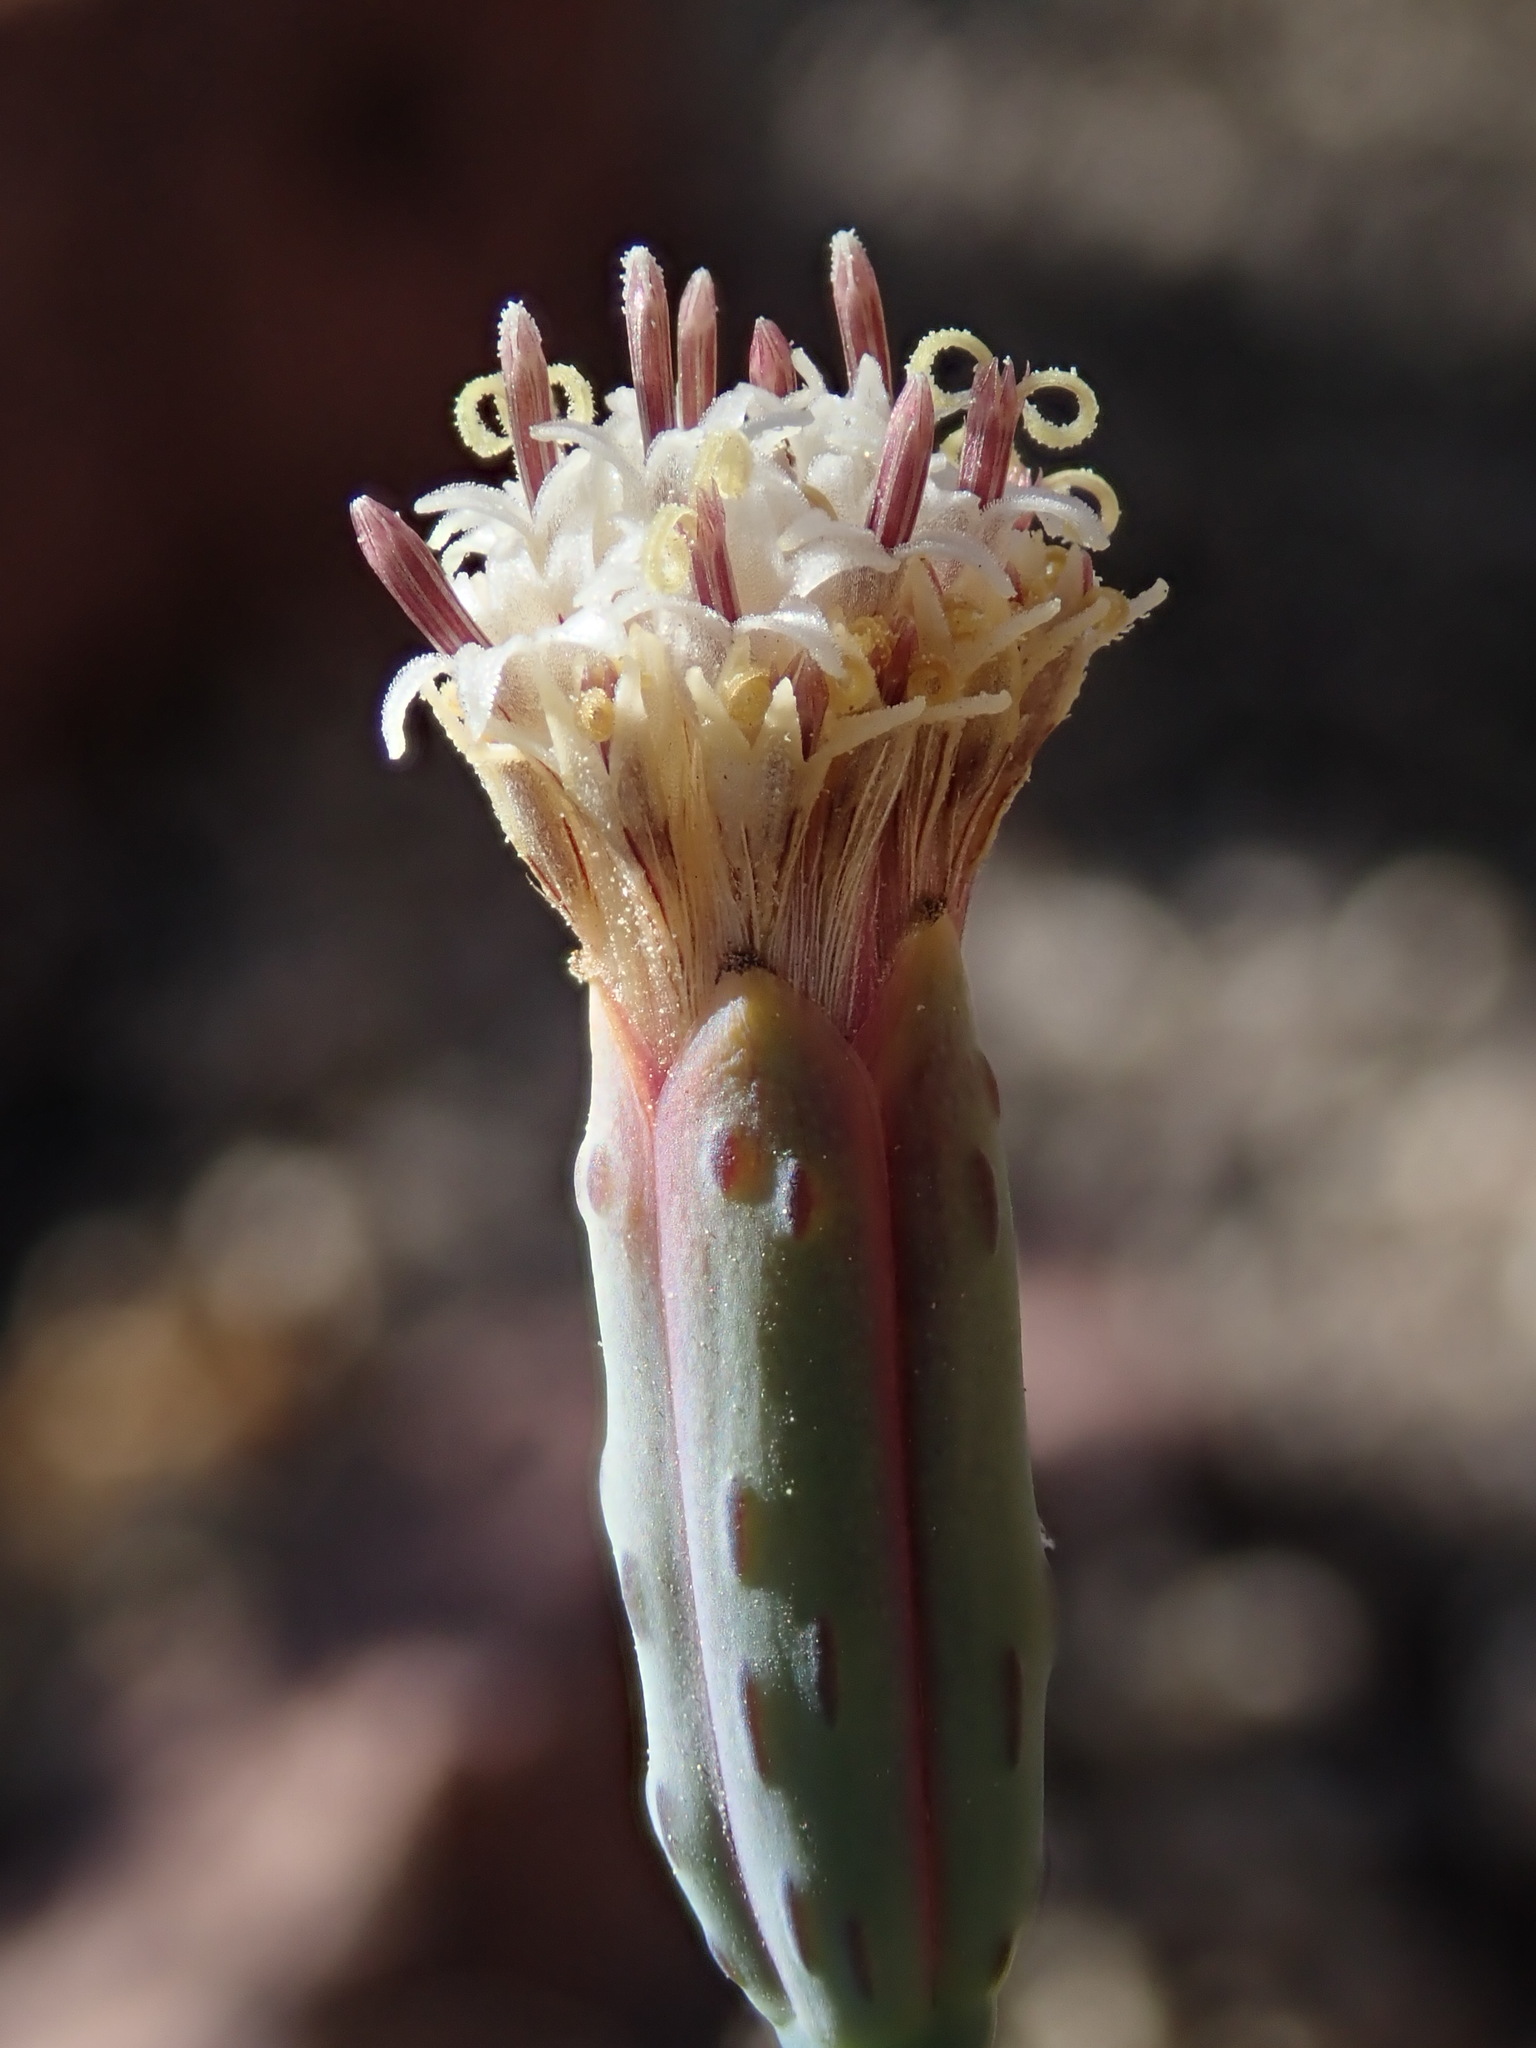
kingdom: Plantae
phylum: Tracheophyta
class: Magnoliopsida
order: Asterales
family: Asteraceae
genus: Porophyllum
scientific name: Porophyllum gracile
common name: Odora
